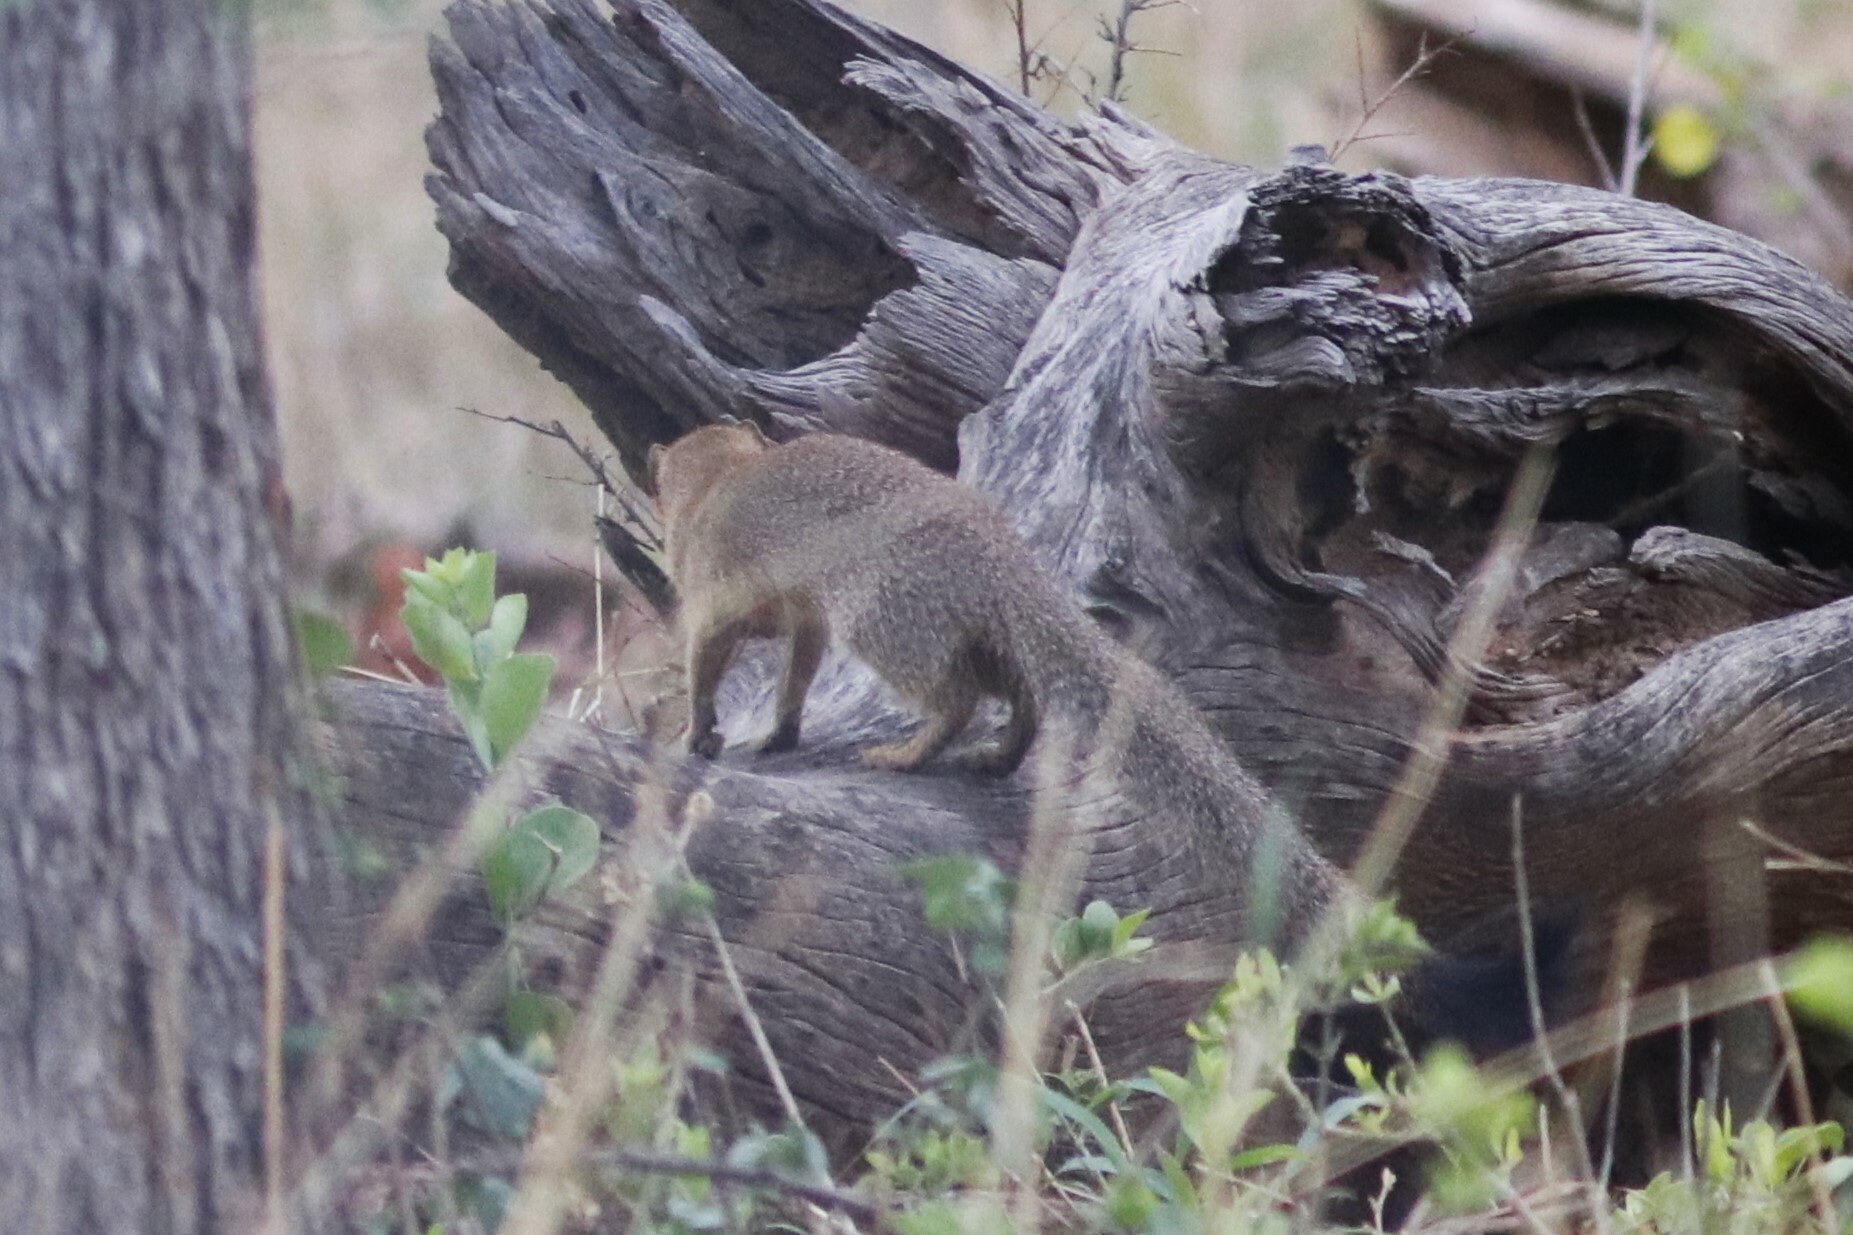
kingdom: Animalia
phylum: Chordata
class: Mammalia
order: Carnivora
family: Herpestidae
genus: Galerella
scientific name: Galerella sanguinea
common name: Slender mongoose
